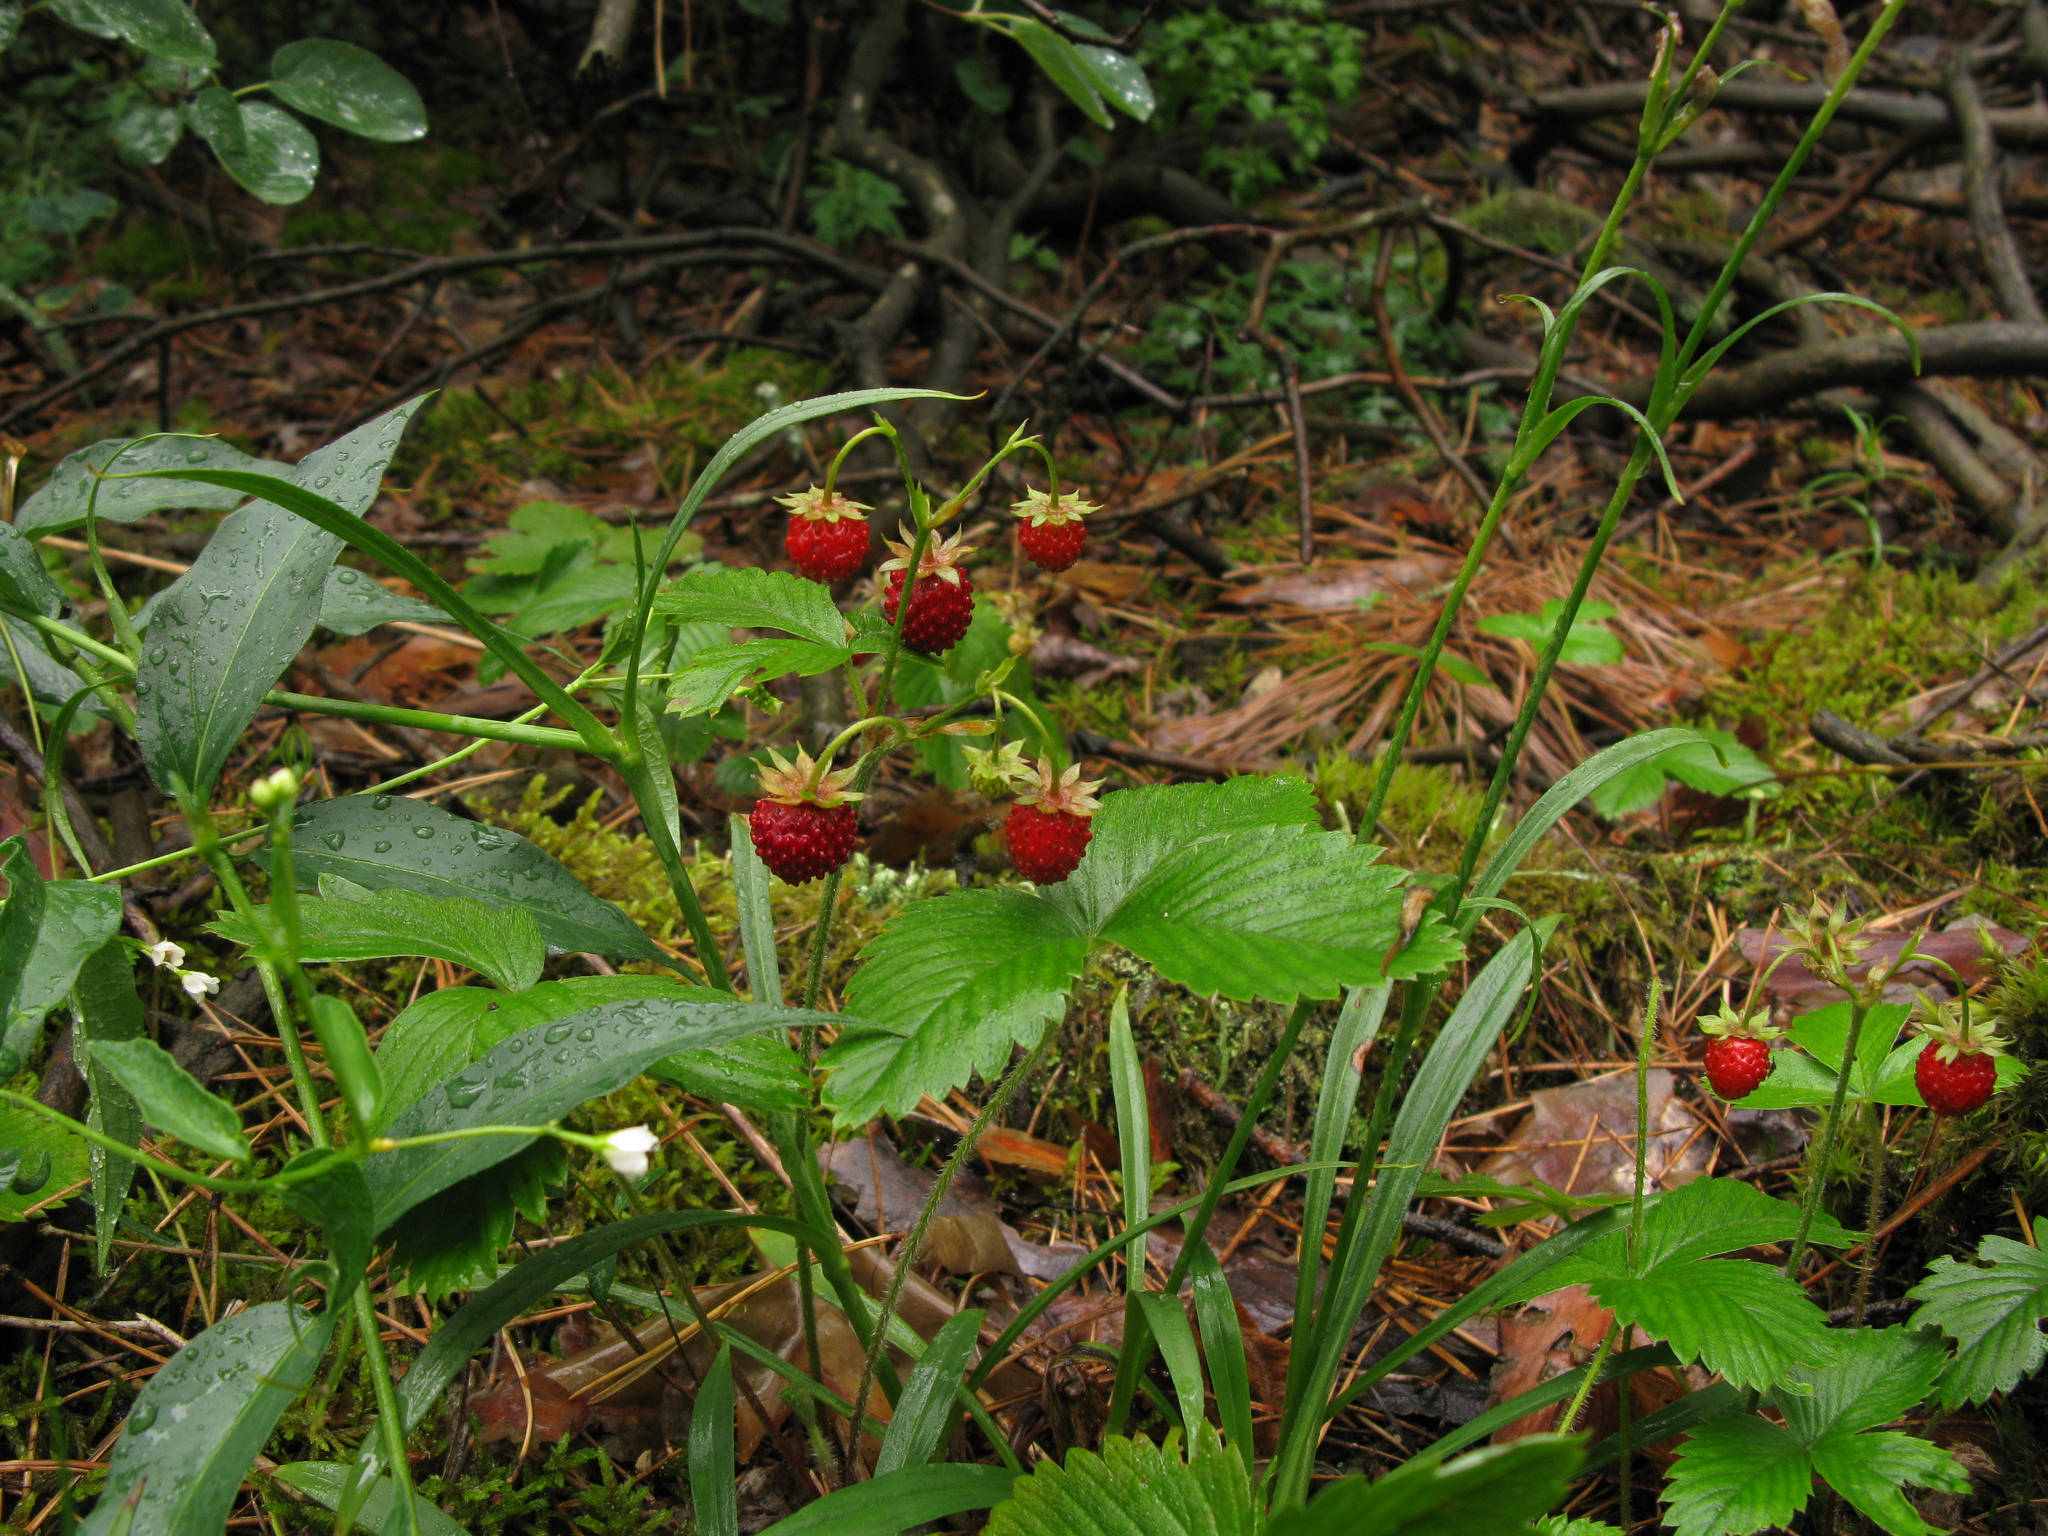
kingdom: Plantae
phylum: Tracheophyta
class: Magnoliopsida
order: Rosales
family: Rosaceae
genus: Fragaria
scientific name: Fragaria vesca
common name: Wild strawberry
